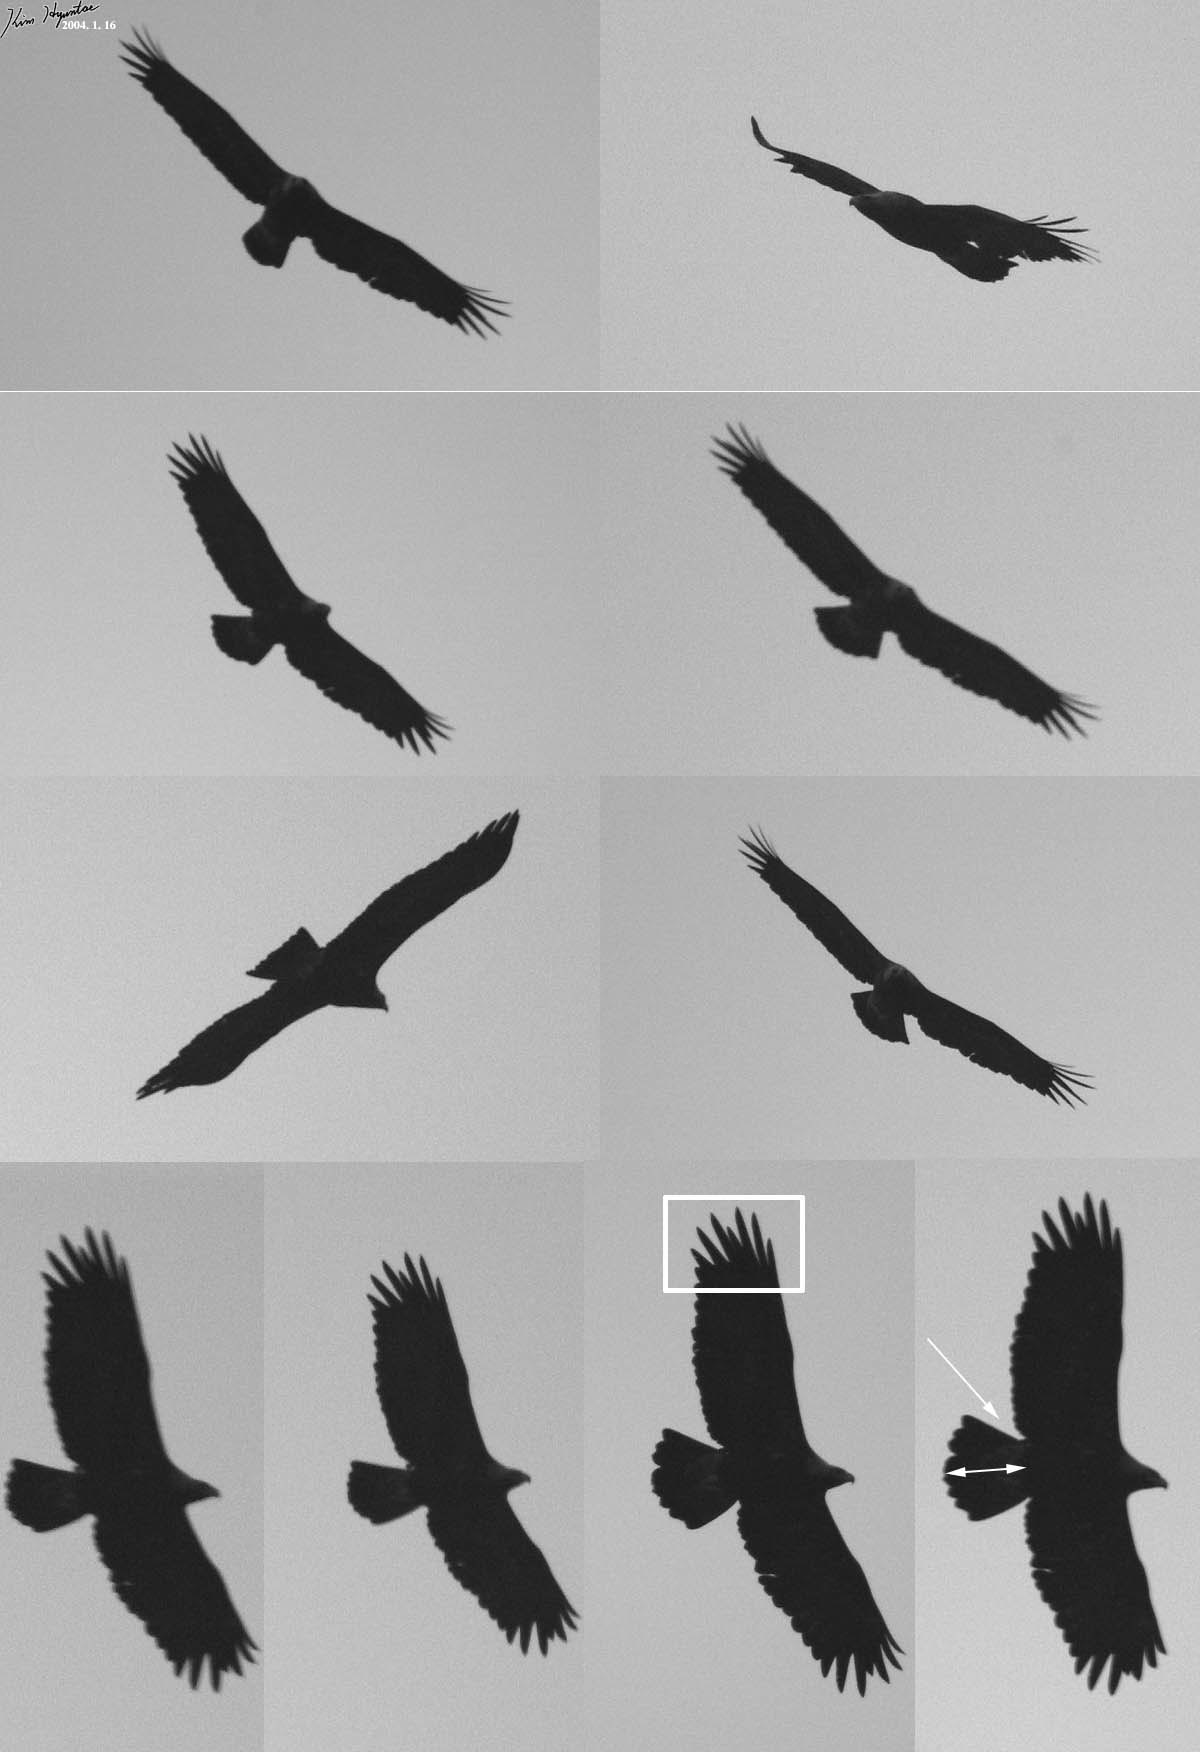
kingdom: Animalia
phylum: Chordata
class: Aves
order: Accipitriformes
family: Accipitridae
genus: Aquila
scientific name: Aquila heliaca
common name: Eastern imperial eagle
